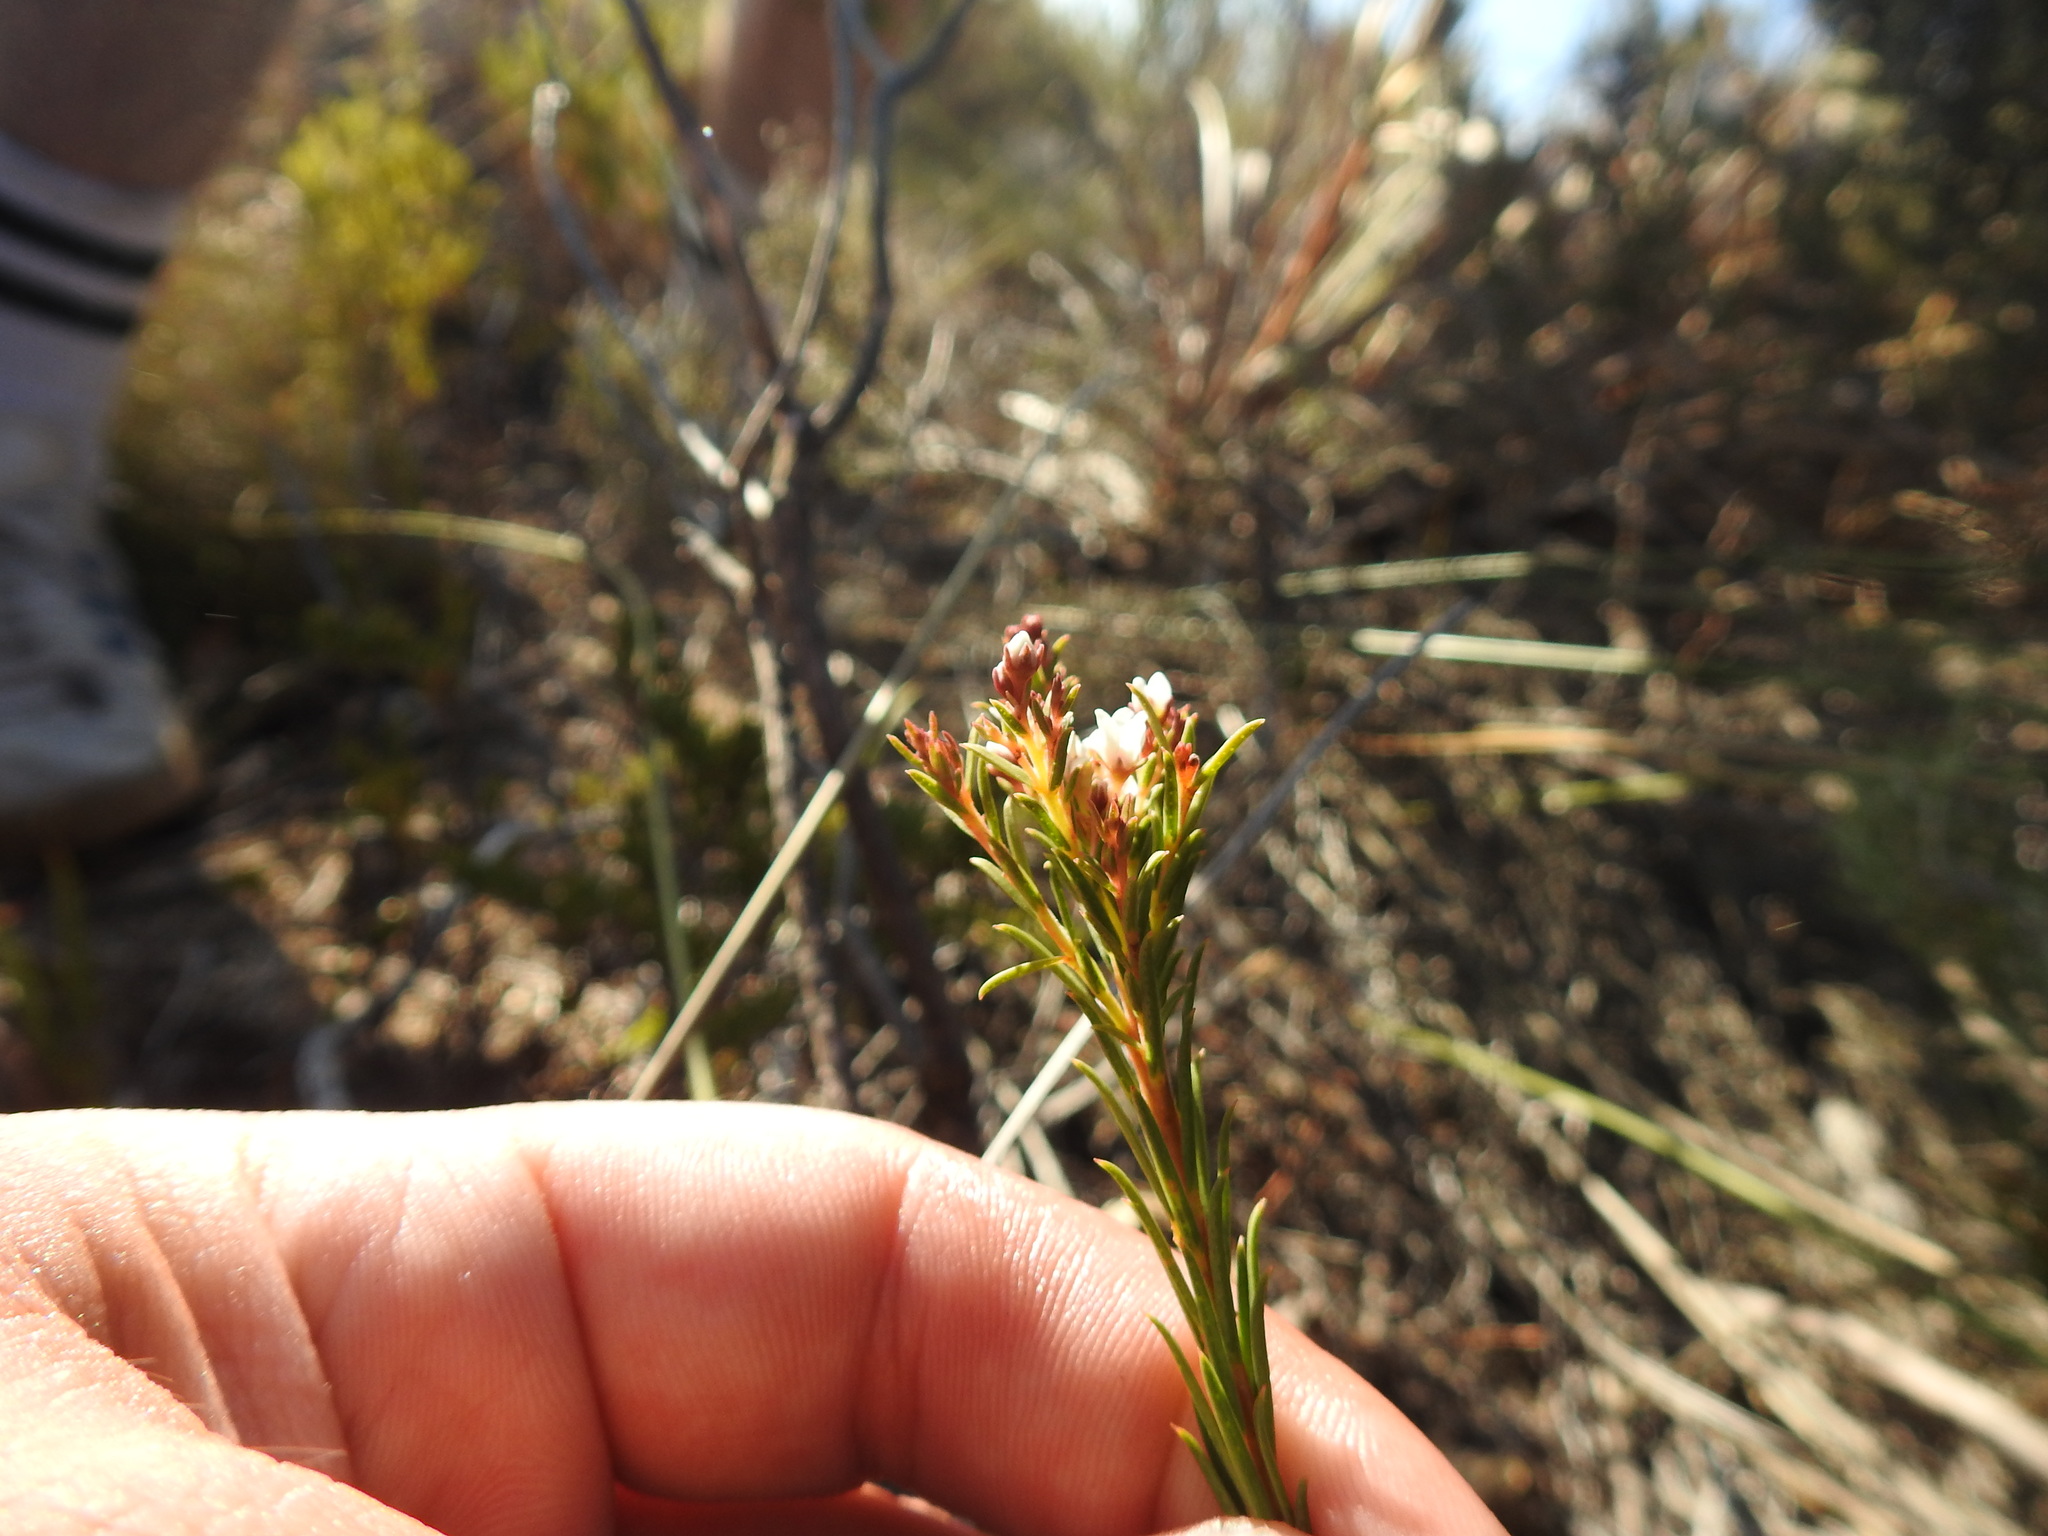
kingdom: Plantae
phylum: Tracheophyta
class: Magnoliopsida
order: Sapindales
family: Rutaceae
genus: Diosma
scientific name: Diosma hirsuta
